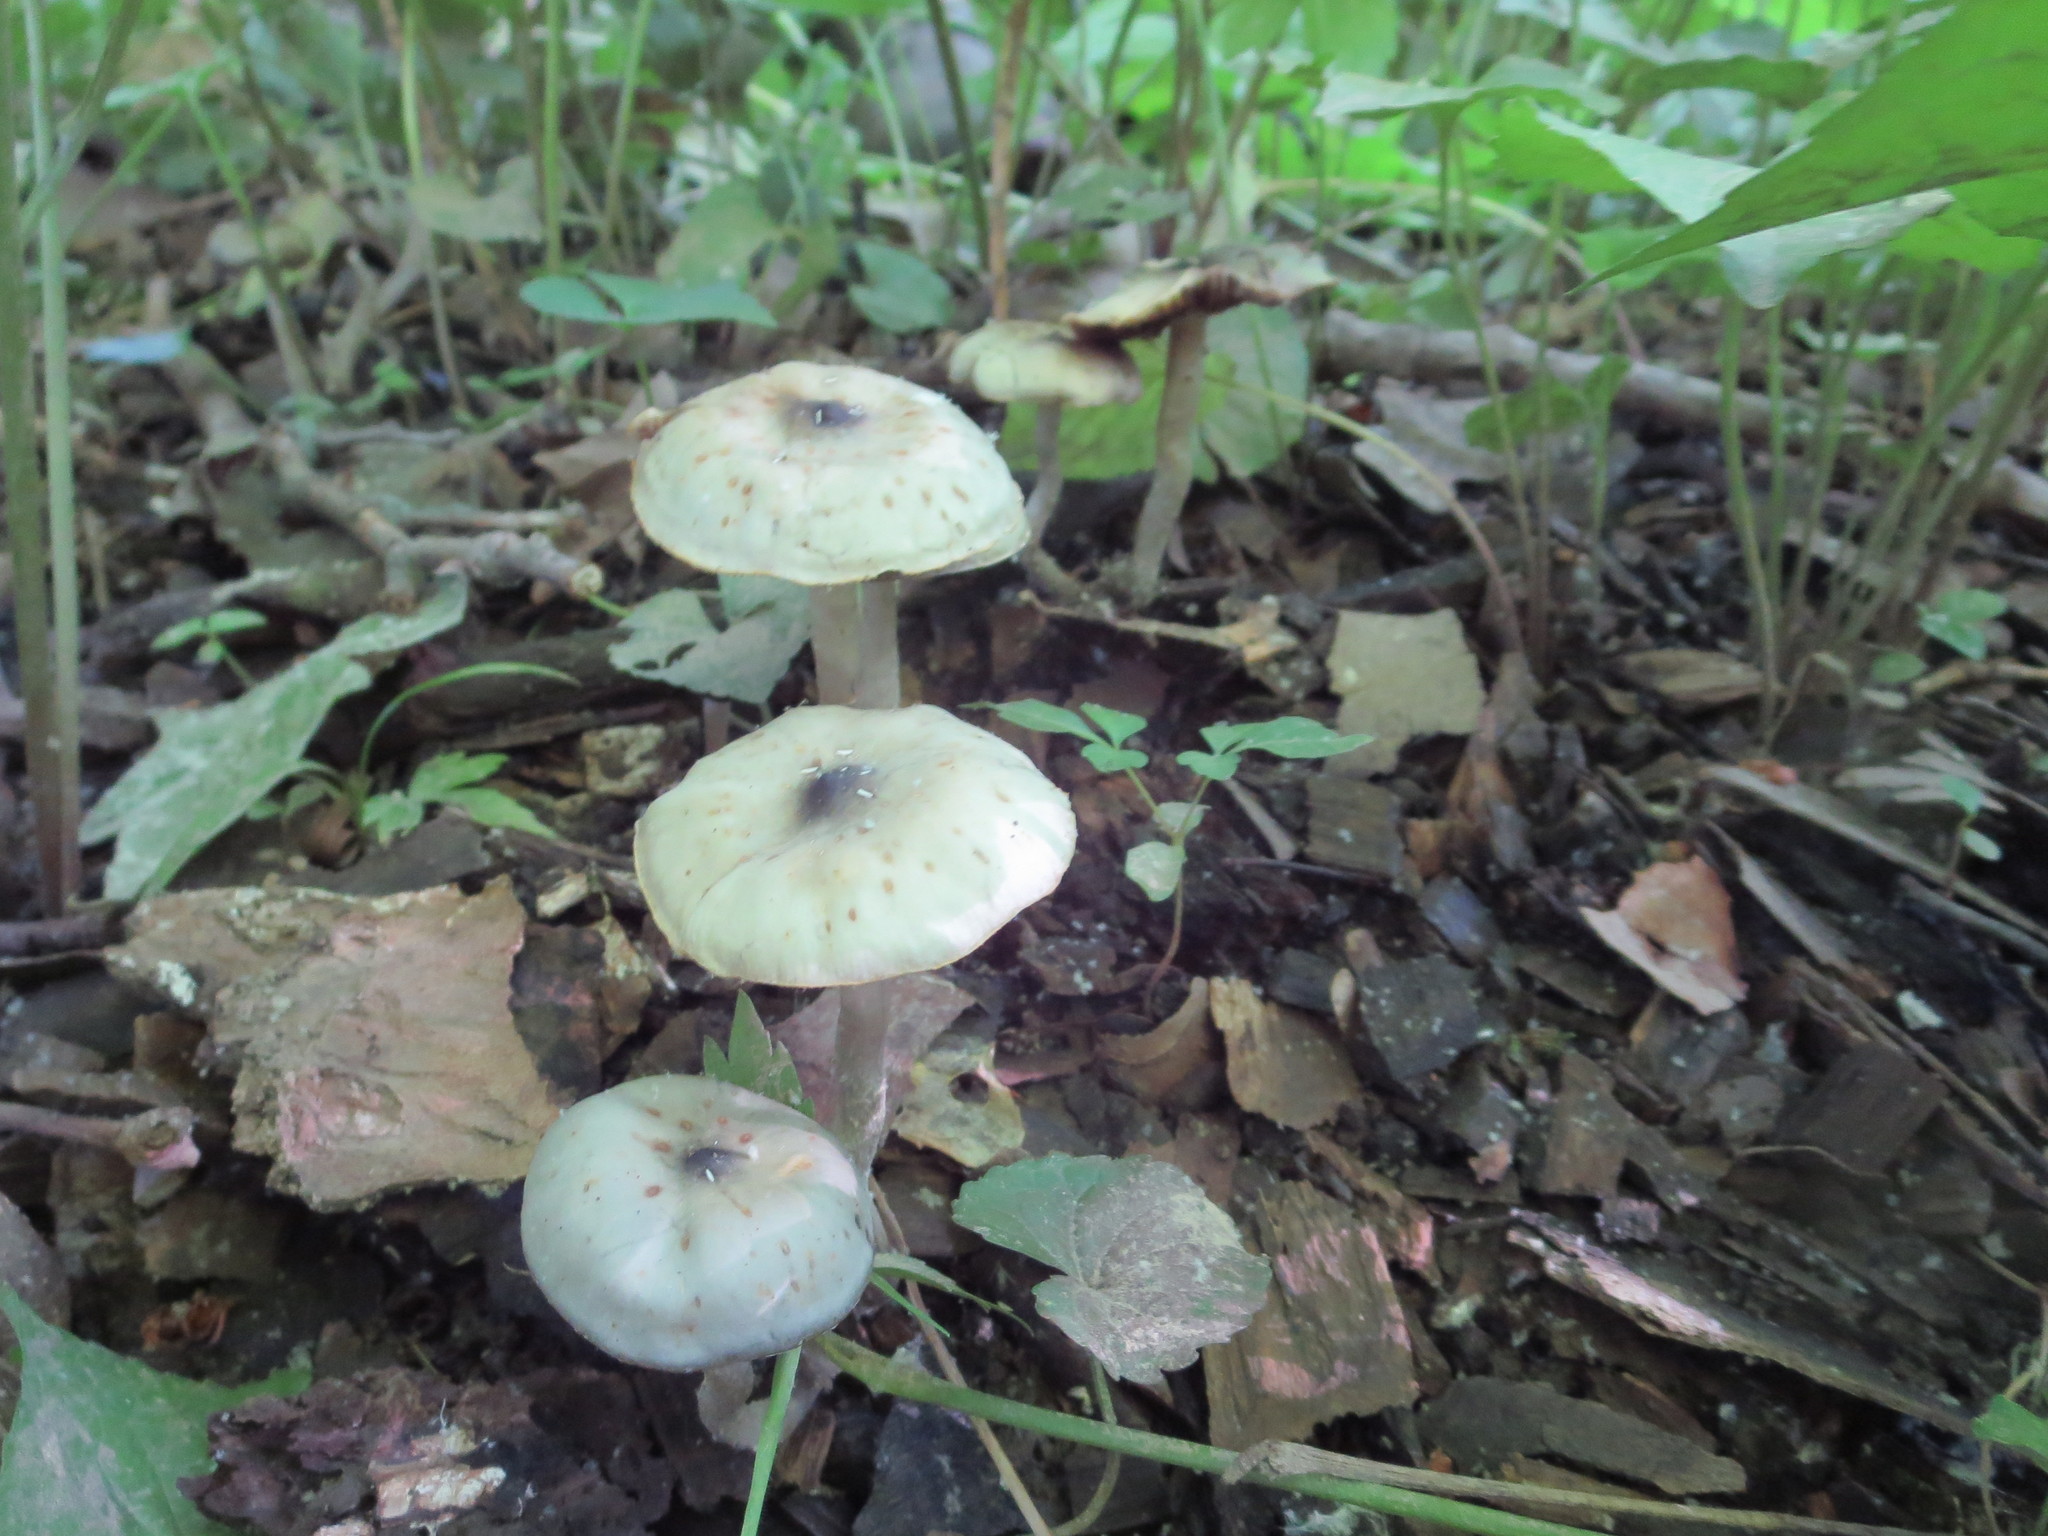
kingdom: Fungi
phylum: Basidiomycota
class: Agaricomycetes
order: Agaricales
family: Hymenogastraceae
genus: Psilocybe
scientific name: Psilocybe ovoideocystidiata
